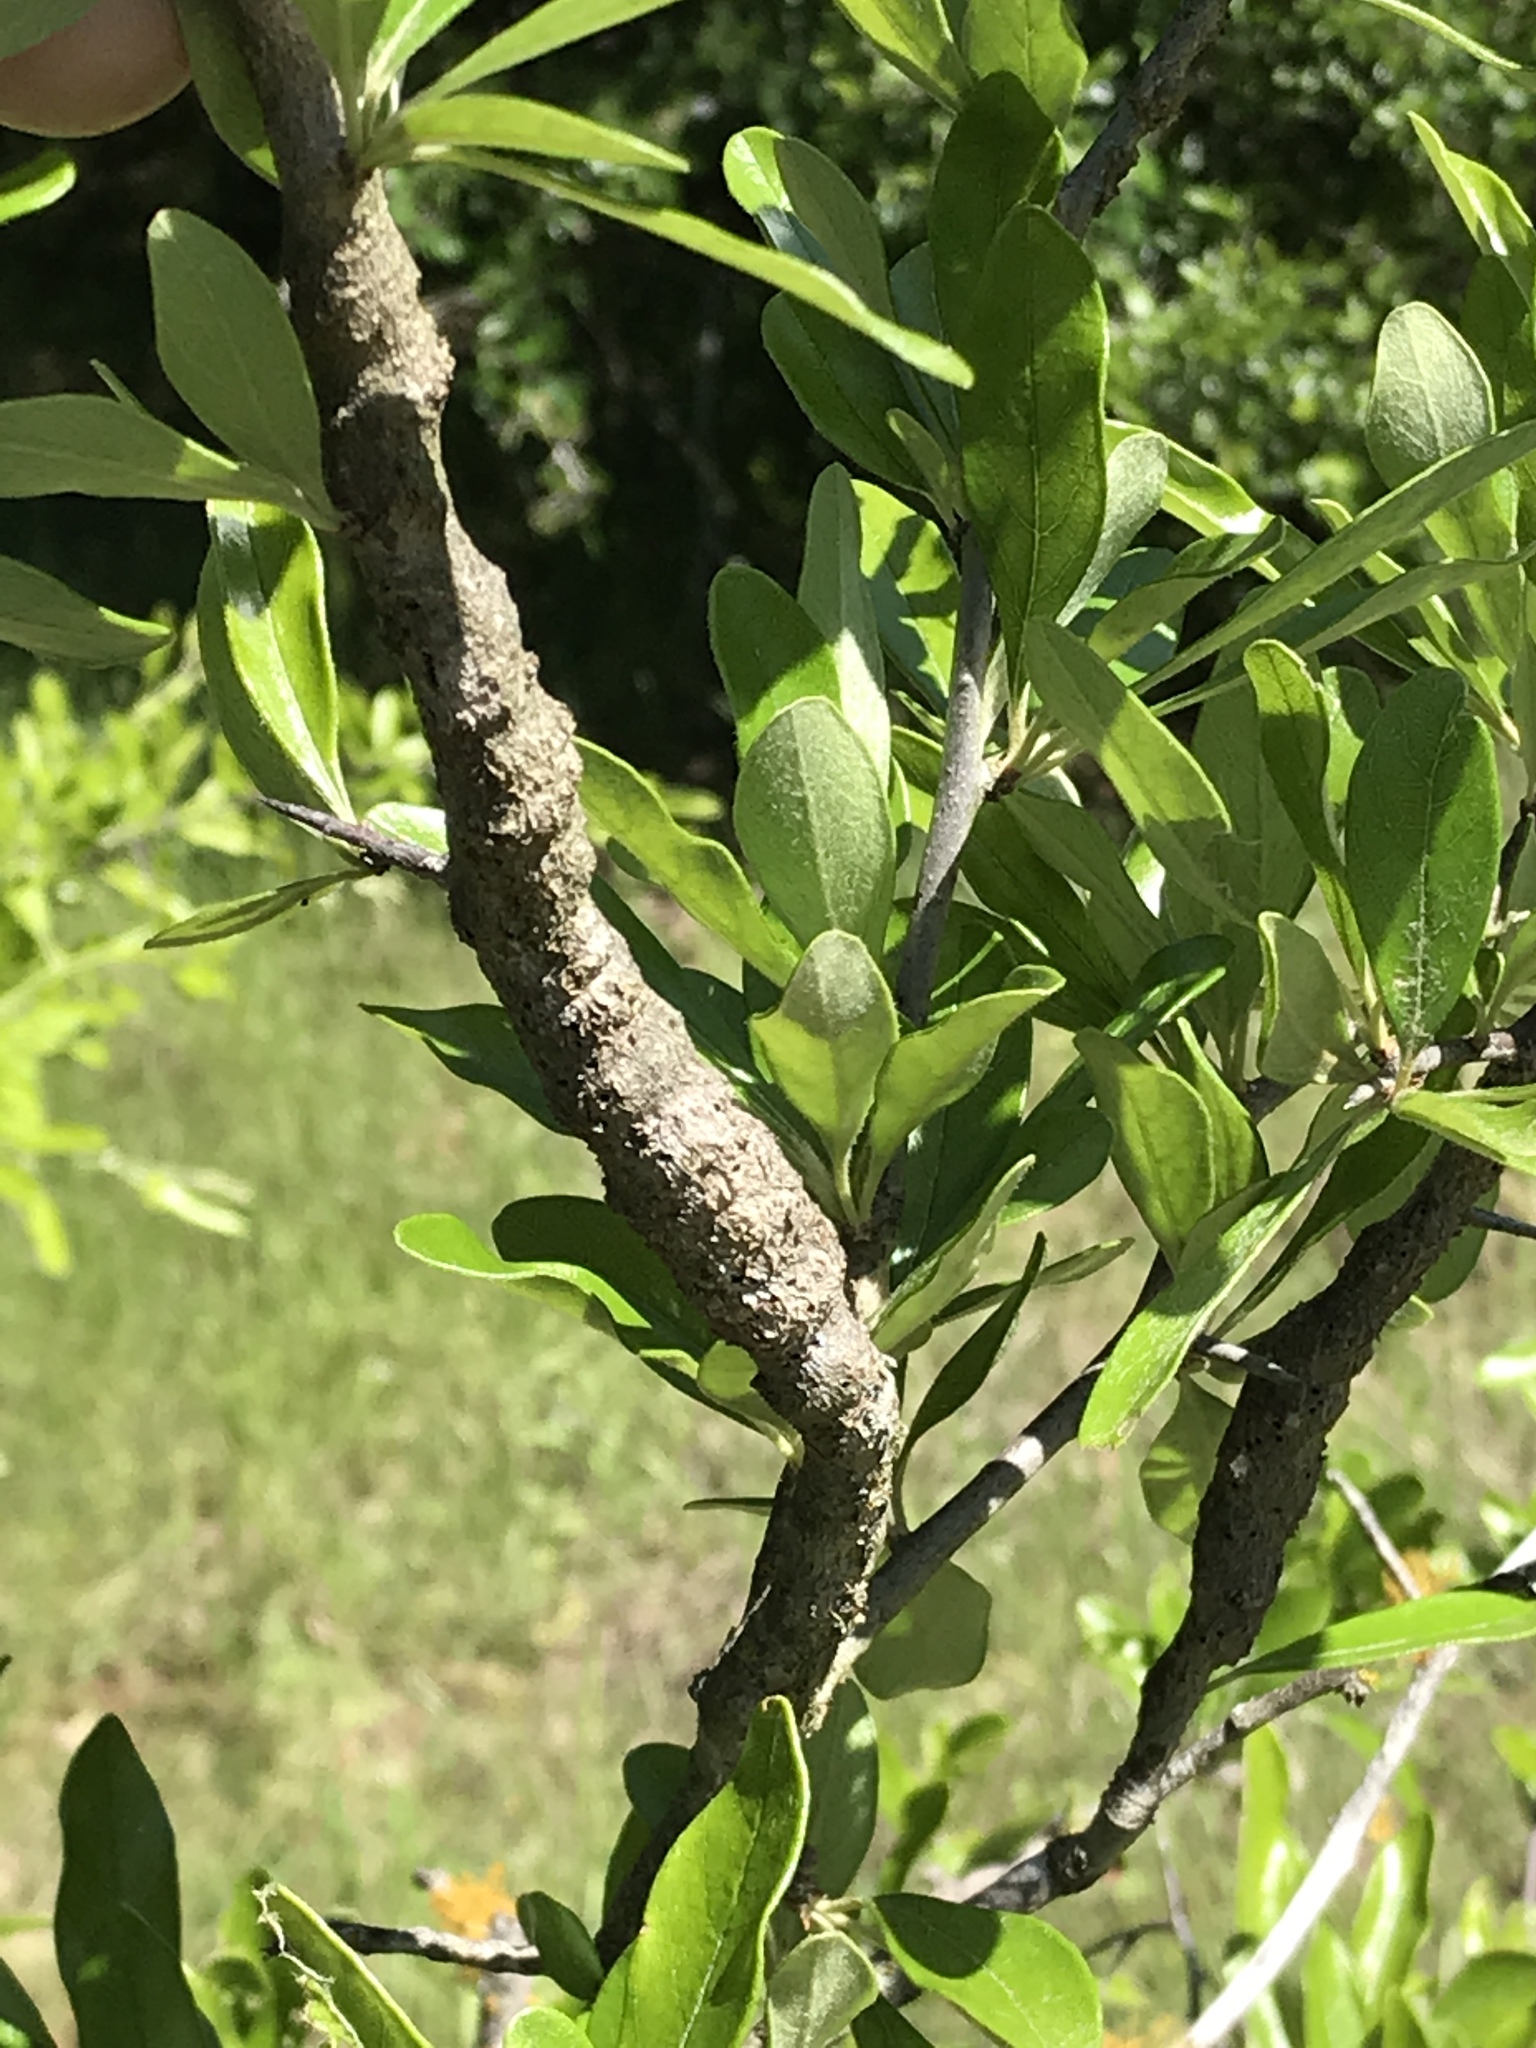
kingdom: Animalia
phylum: Arthropoda
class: Insecta
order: Diptera
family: Cecidomyiidae
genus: Bruggmanniella
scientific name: Bruggmanniella bumeliae
